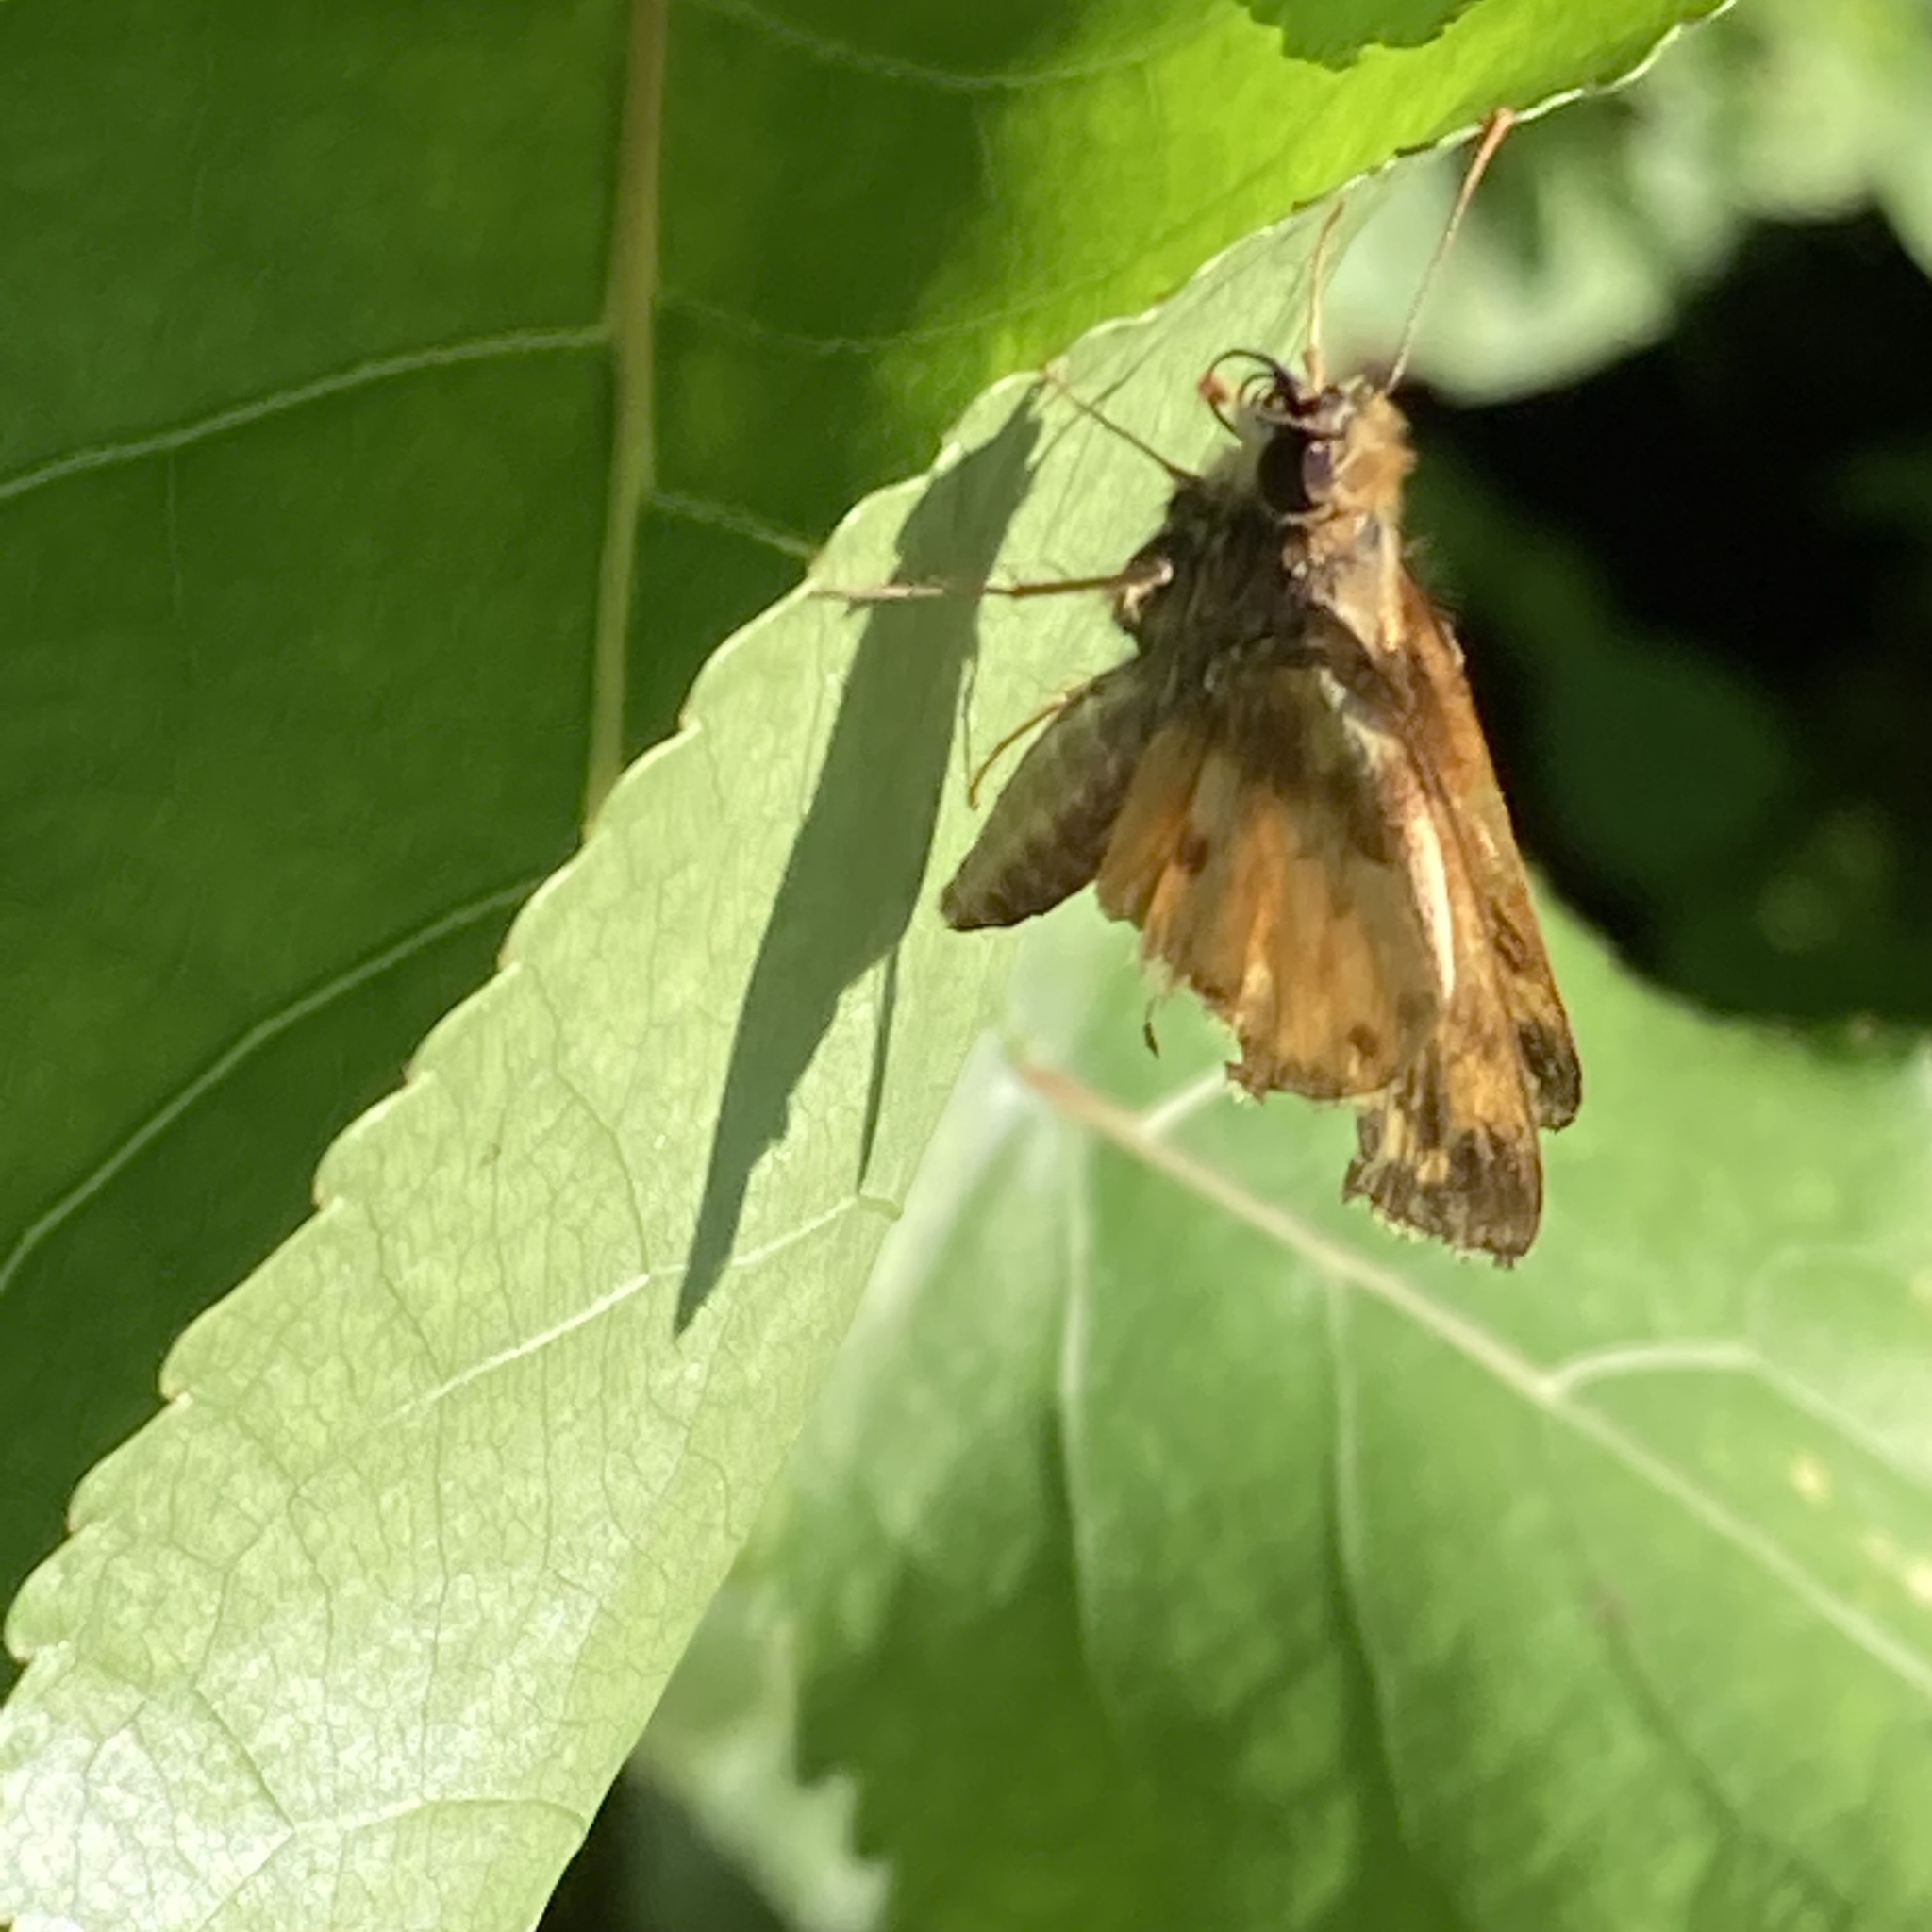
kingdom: Animalia
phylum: Arthropoda
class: Insecta
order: Lepidoptera
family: Hesperiidae
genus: Lon
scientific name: Lon zabulon
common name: Zabulon skipper
